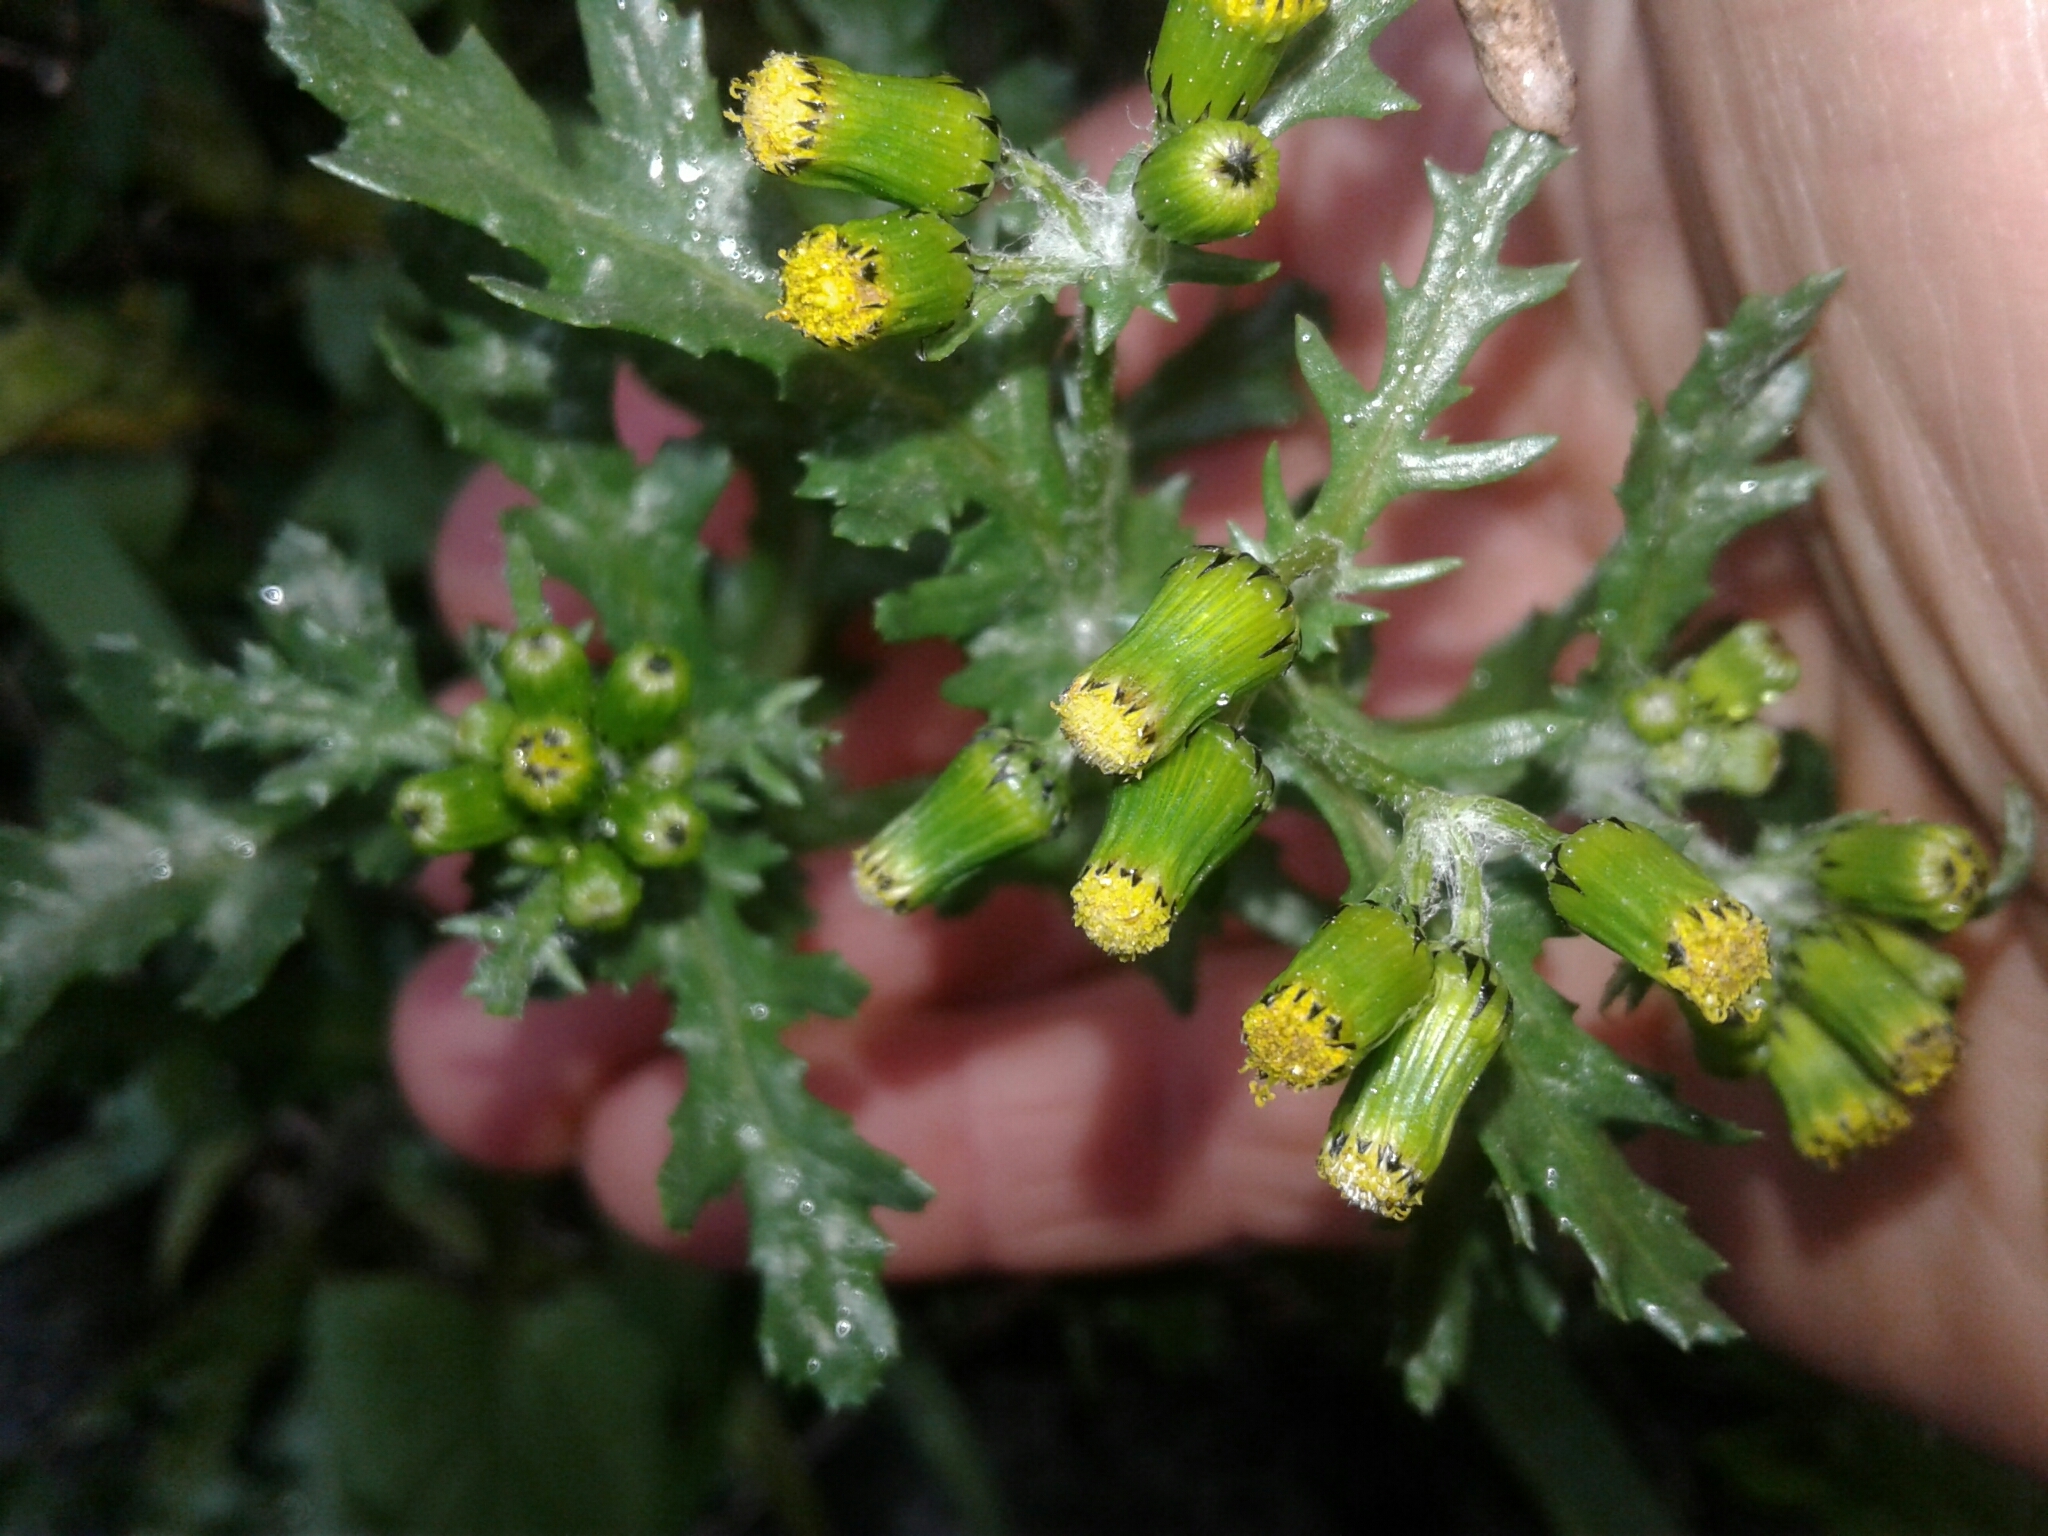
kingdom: Plantae
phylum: Tracheophyta
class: Magnoliopsida
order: Asterales
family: Asteraceae
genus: Senecio
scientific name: Senecio vulgaris
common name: Old-man-in-the-spring
